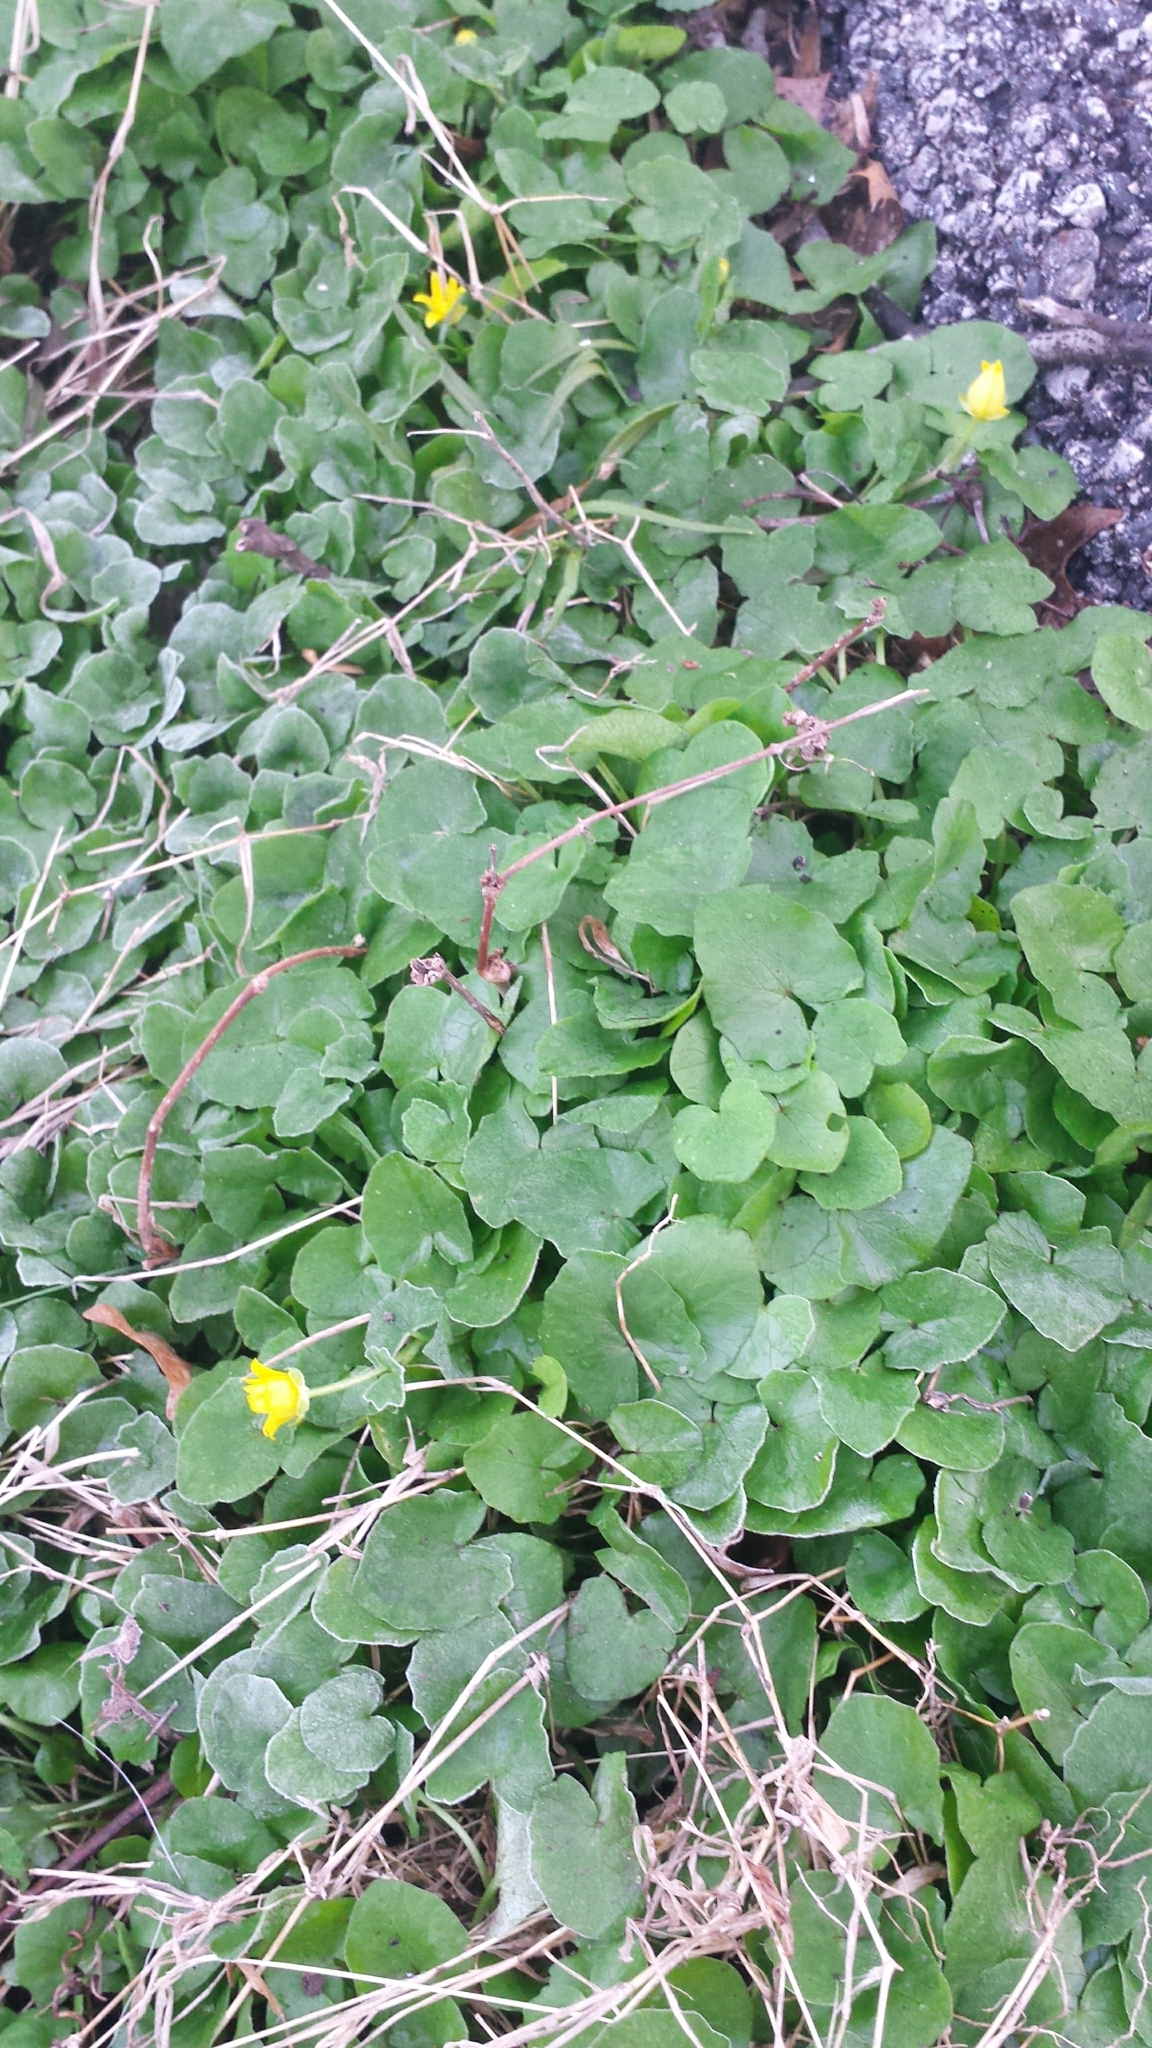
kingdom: Plantae
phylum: Tracheophyta
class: Magnoliopsida
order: Ranunculales
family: Ranunculaceae
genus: Ficaria
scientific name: Ficaria verna
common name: Lesser celandine
